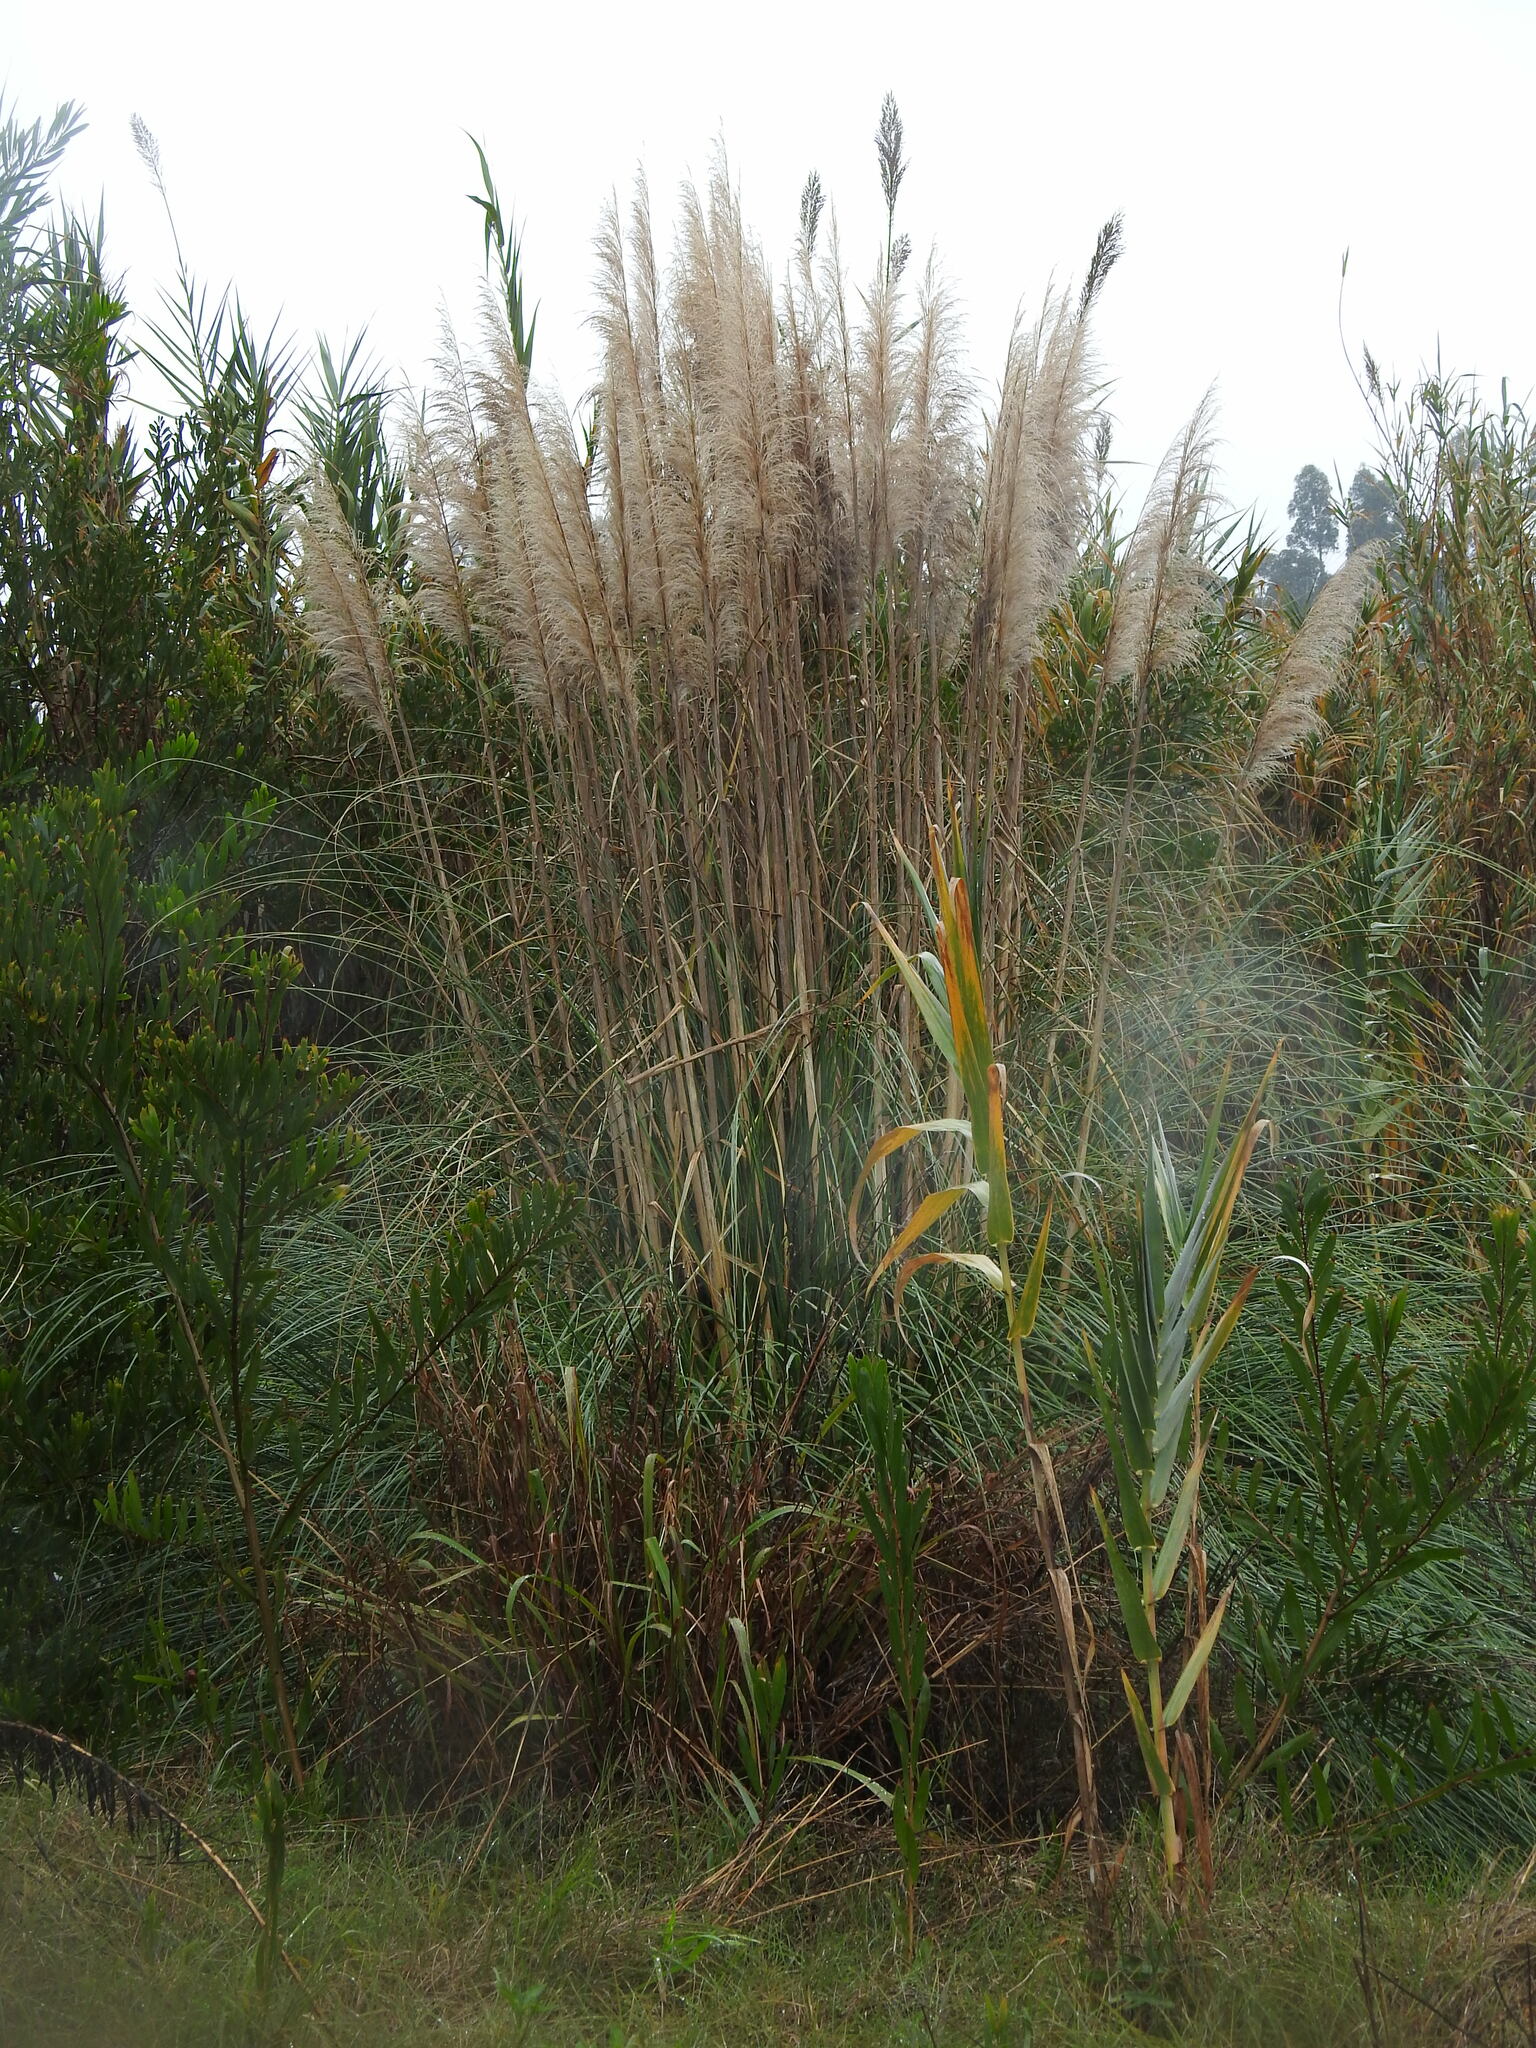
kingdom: Plantae
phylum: Tracheophyta
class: Liliopsida
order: Poales
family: Poaceae
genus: Cortaderia
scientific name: Cortaderia selloana
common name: Uruguayan pampas grass
